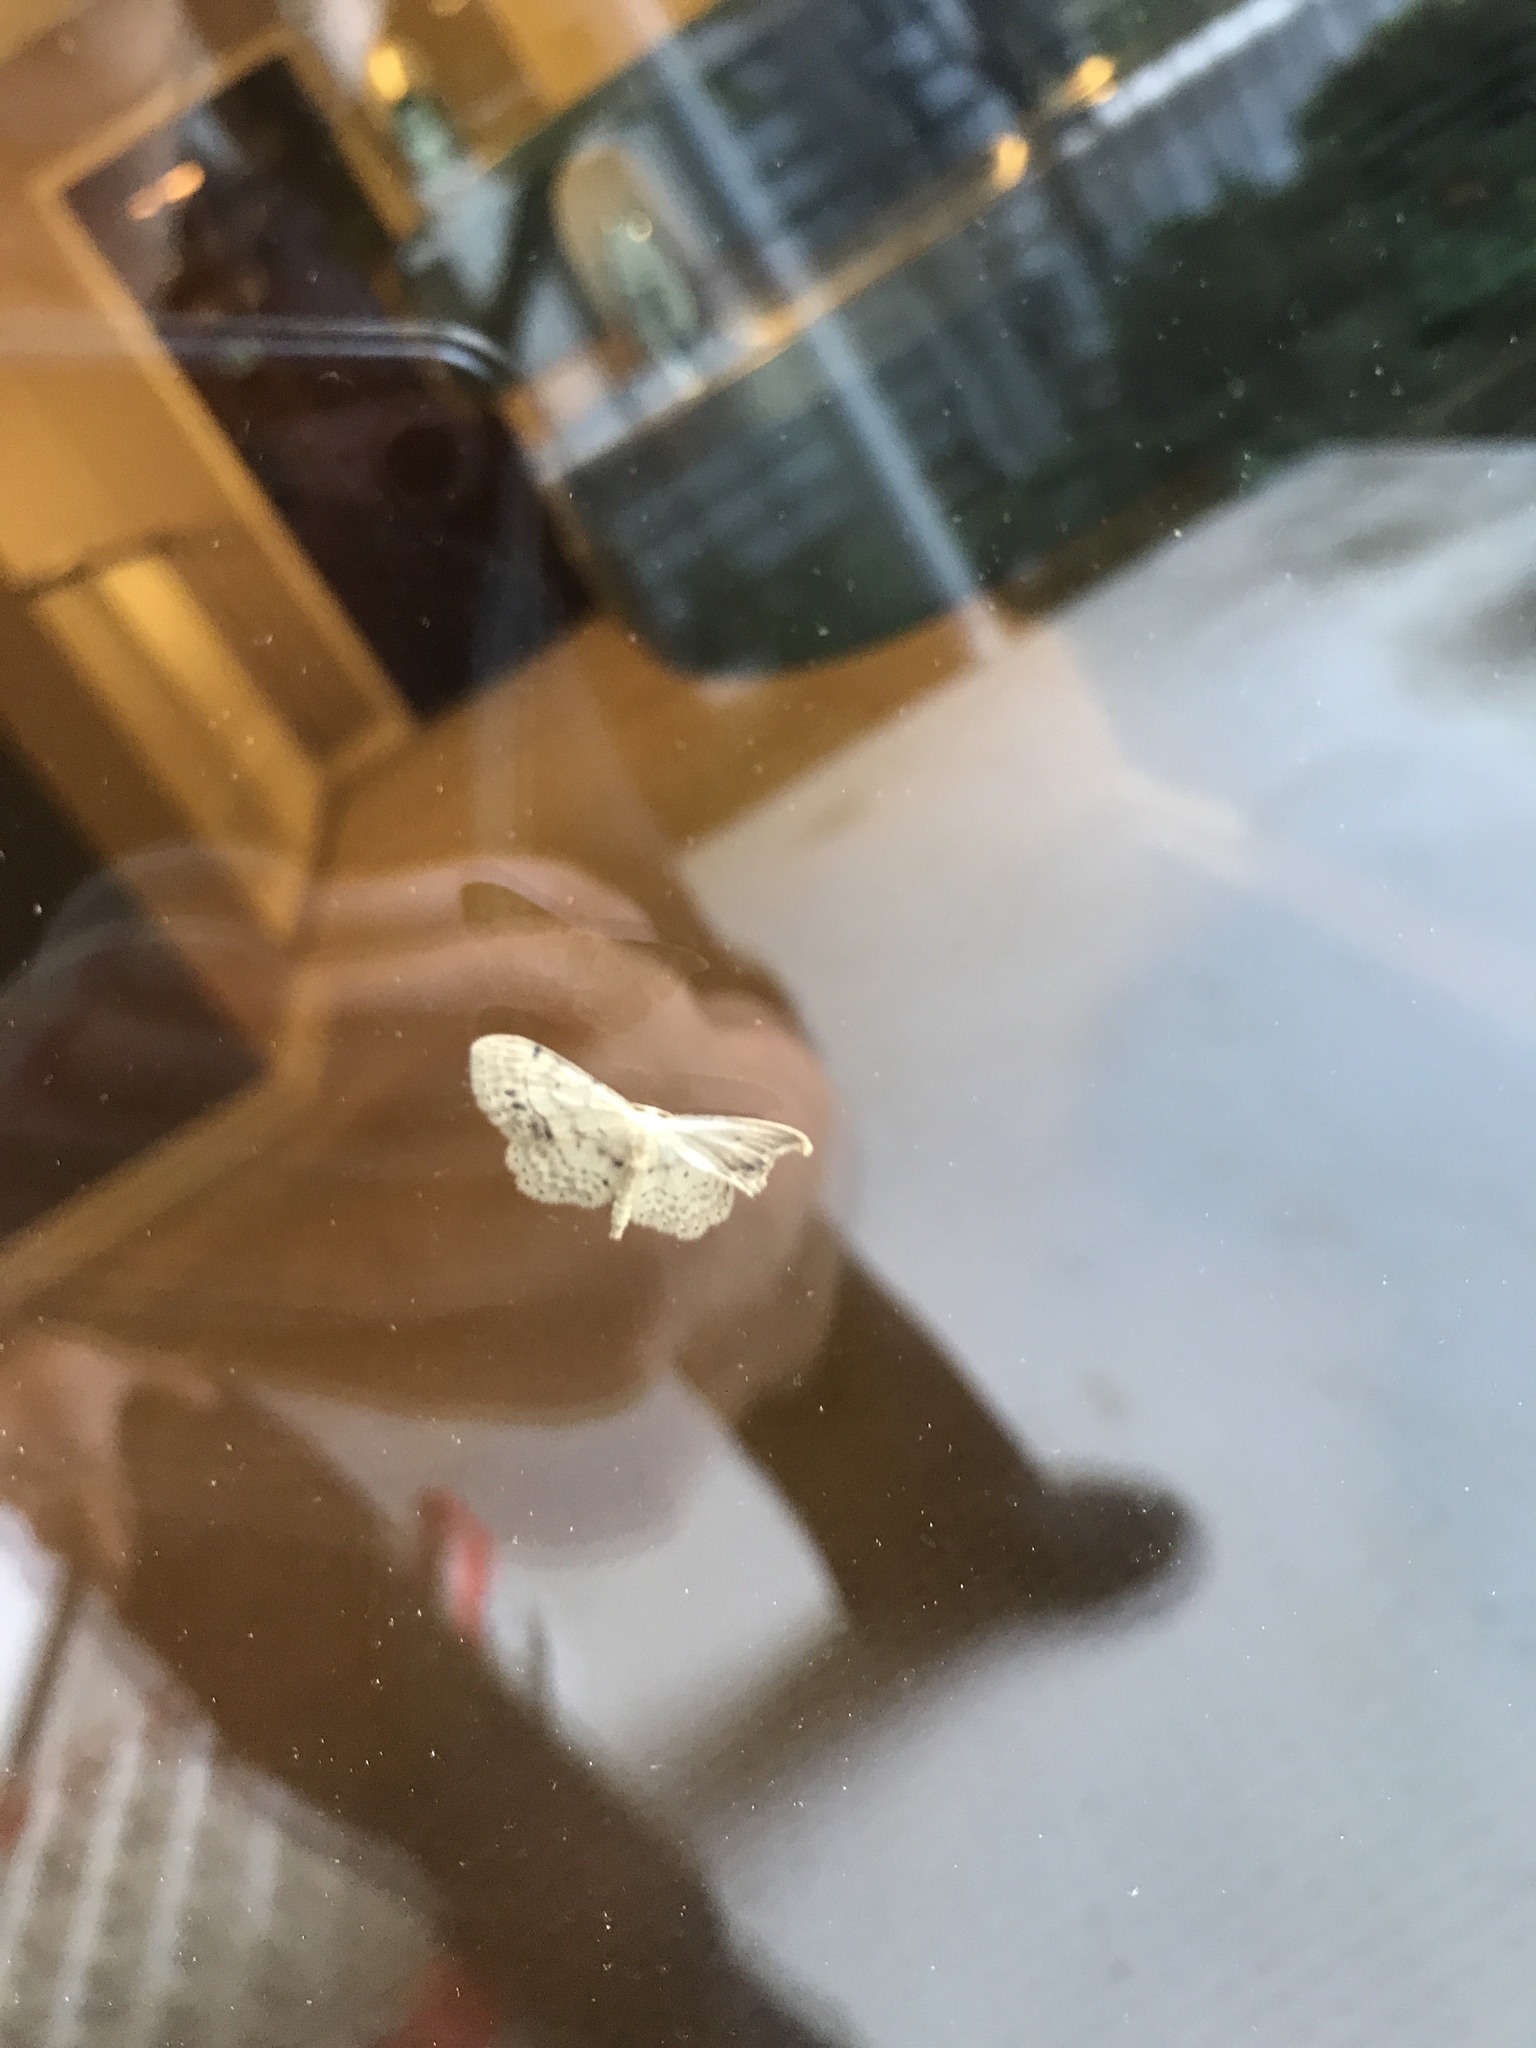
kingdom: Animalia
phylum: Arthropoda
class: Insecta
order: Lepidoptera
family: Geometridae
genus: Idaea
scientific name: Idaea dimidiata
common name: Single-dotted wave
